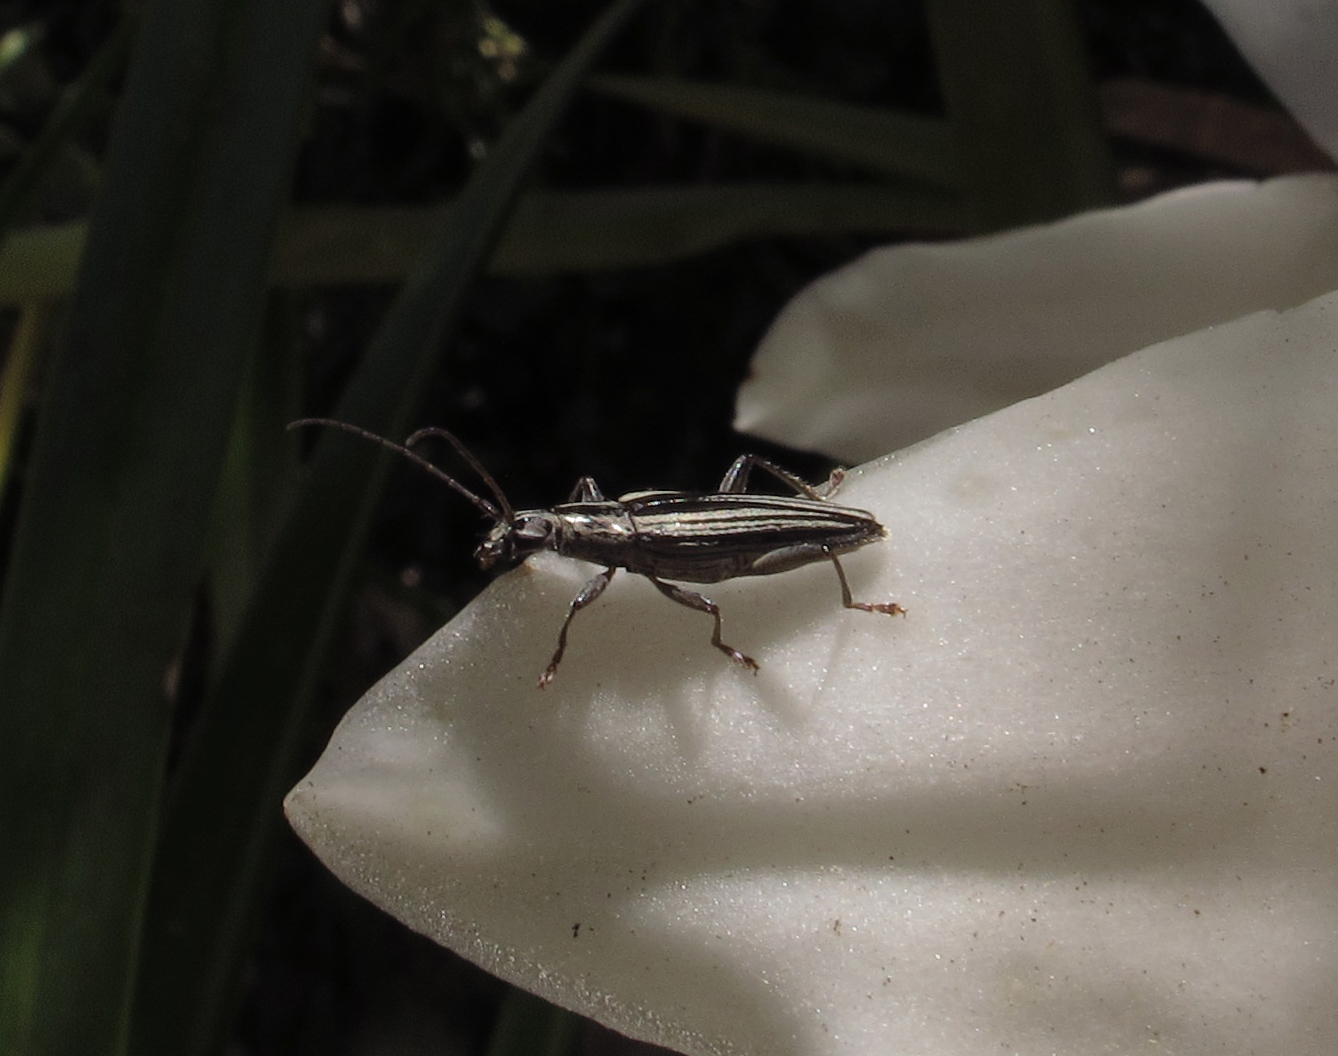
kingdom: Animalia
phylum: Arthropoda
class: Insecta
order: Coleoptera
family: Cerambycidae
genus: Coptomma
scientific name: Coptomma sulcatum
